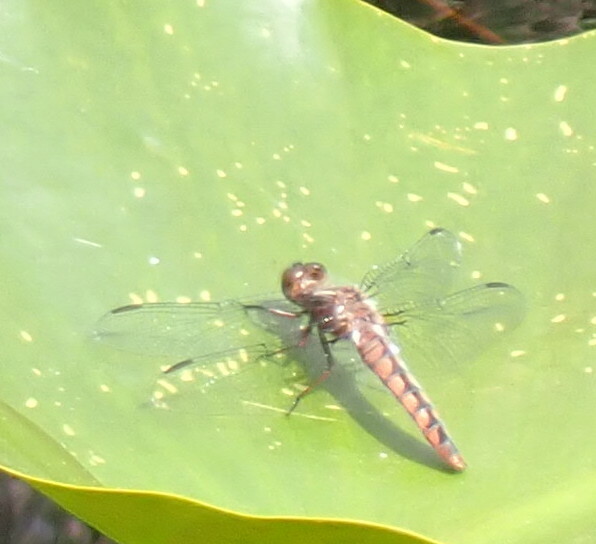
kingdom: Animalia
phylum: Arthropoda
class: Insecta
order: Odonata
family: Libellulidae
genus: Ladona
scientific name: Ladona deplanata
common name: Blue corporal
